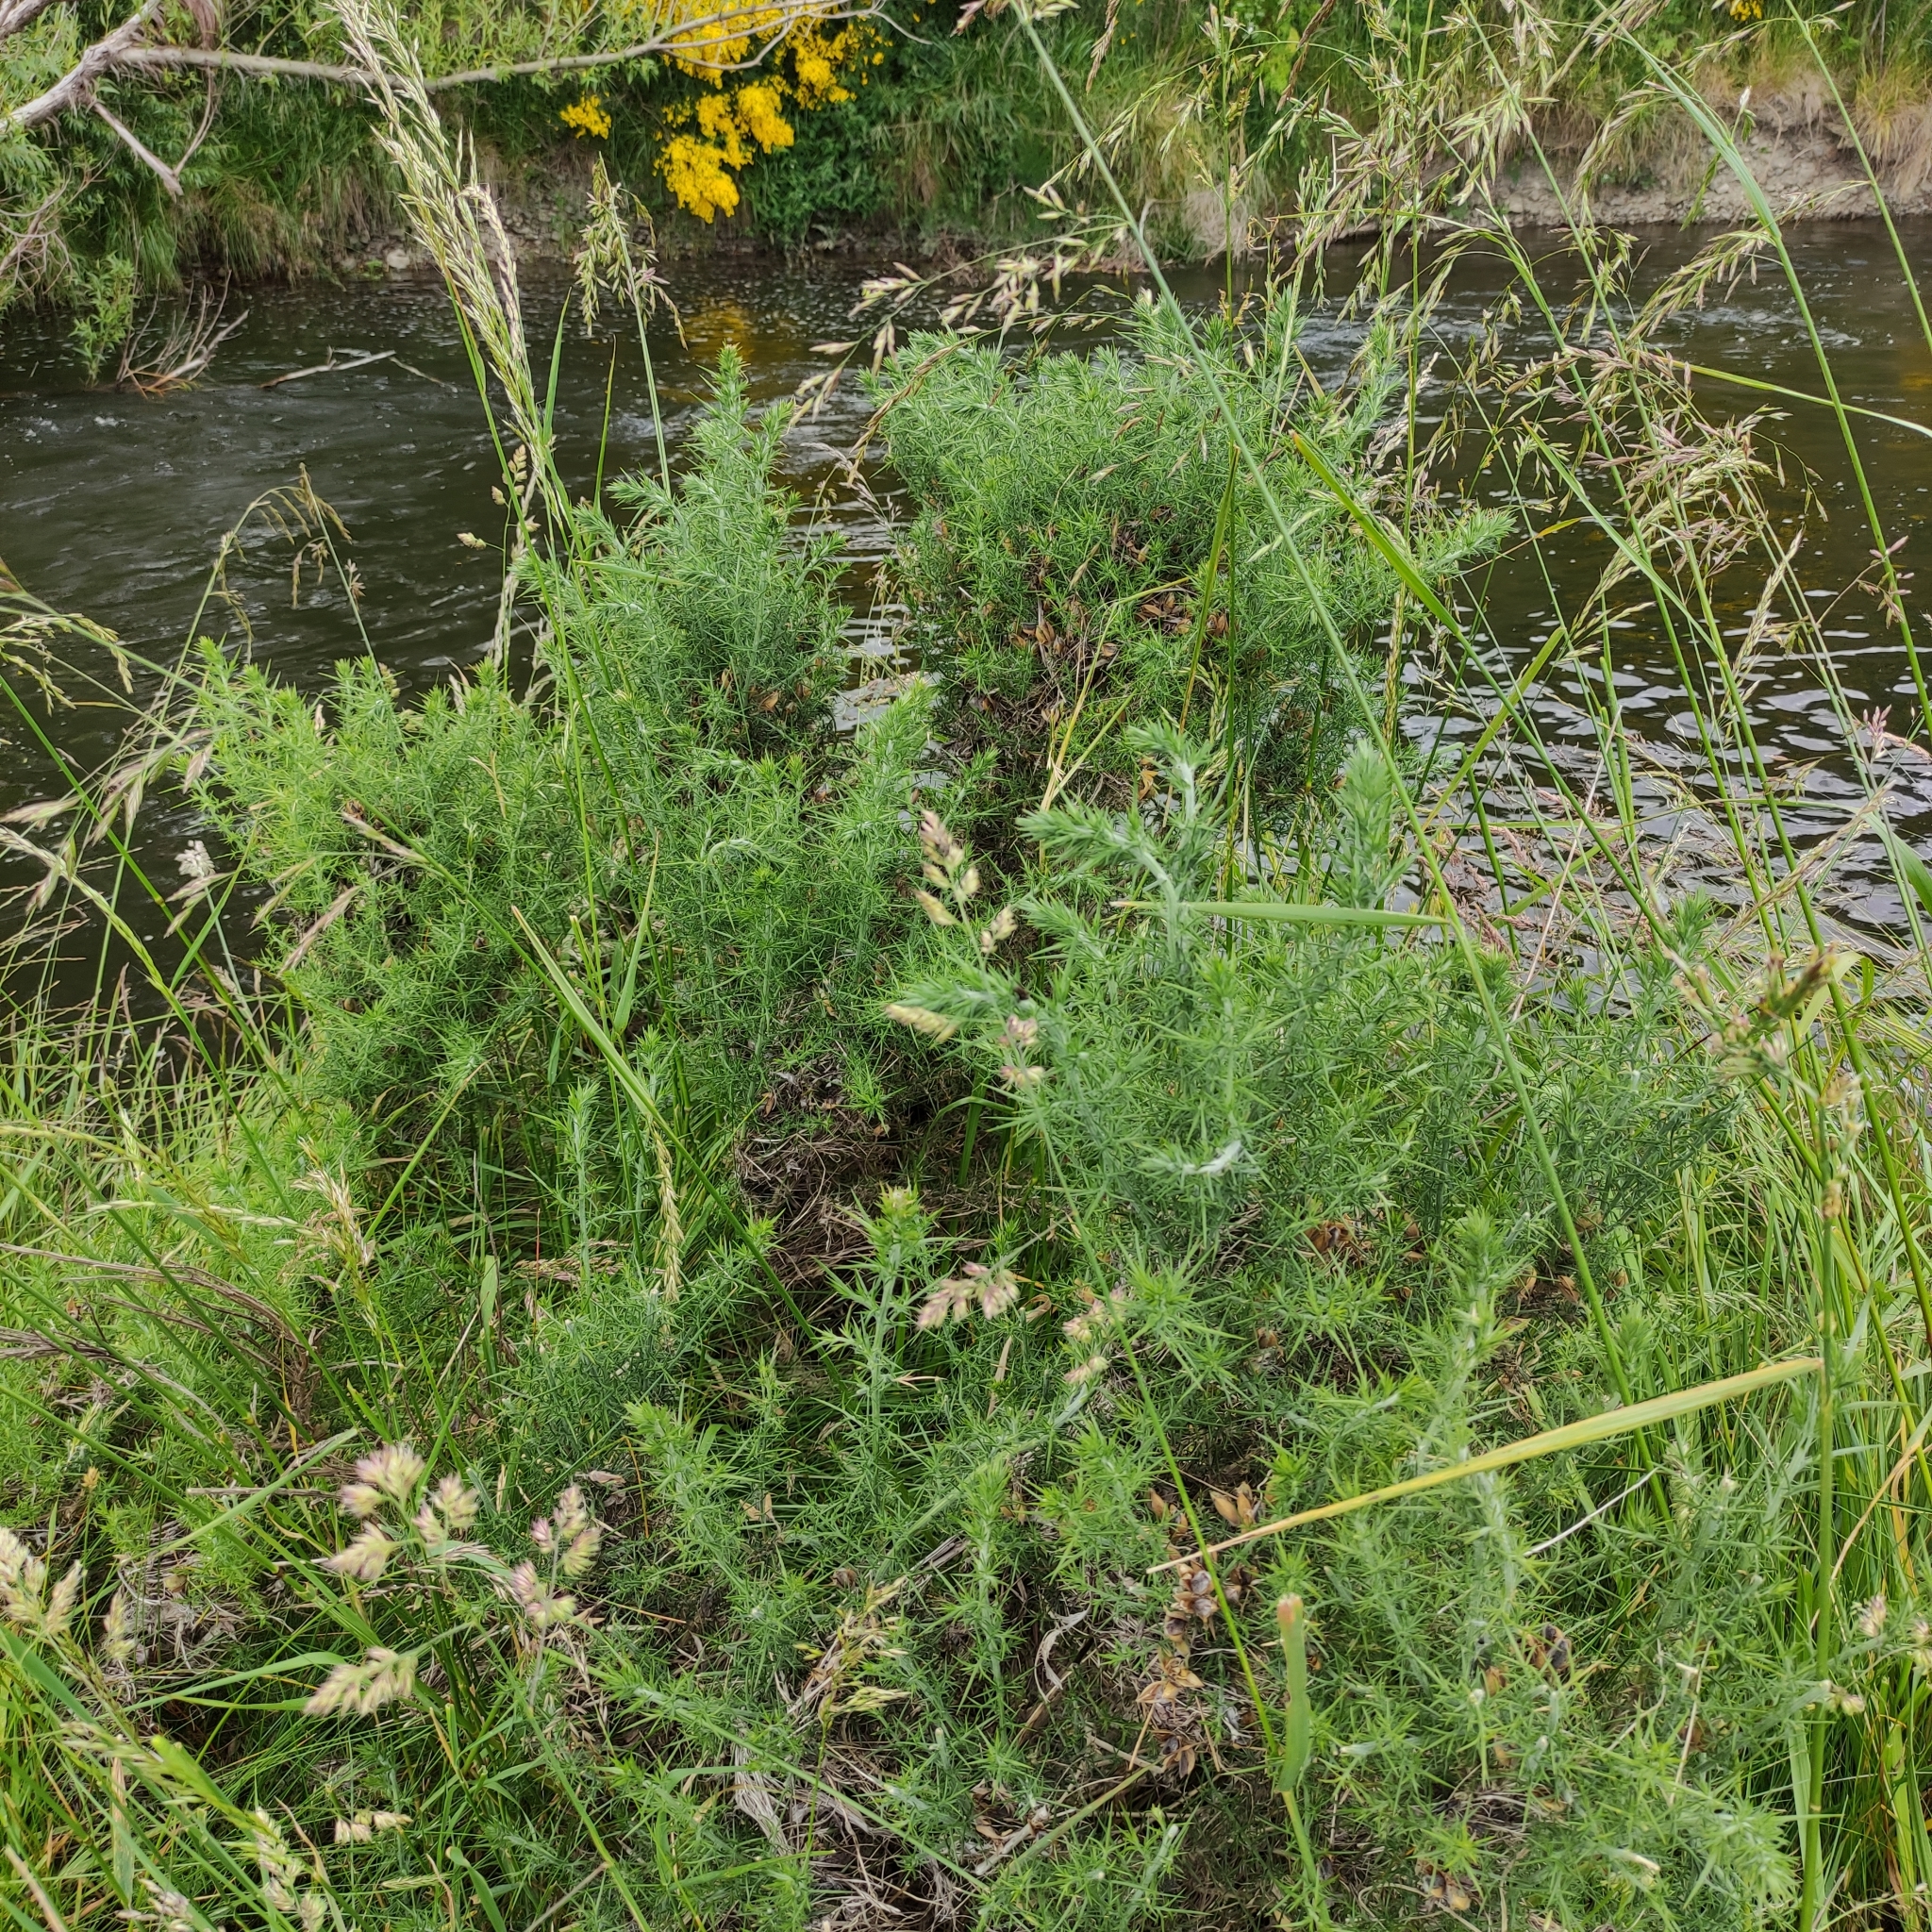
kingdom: Plantae
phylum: Tracheophyta
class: Magnoliopsida
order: Fabales
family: Fabaceae
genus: Ulex
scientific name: Ulex europaeus
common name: Common gorse
